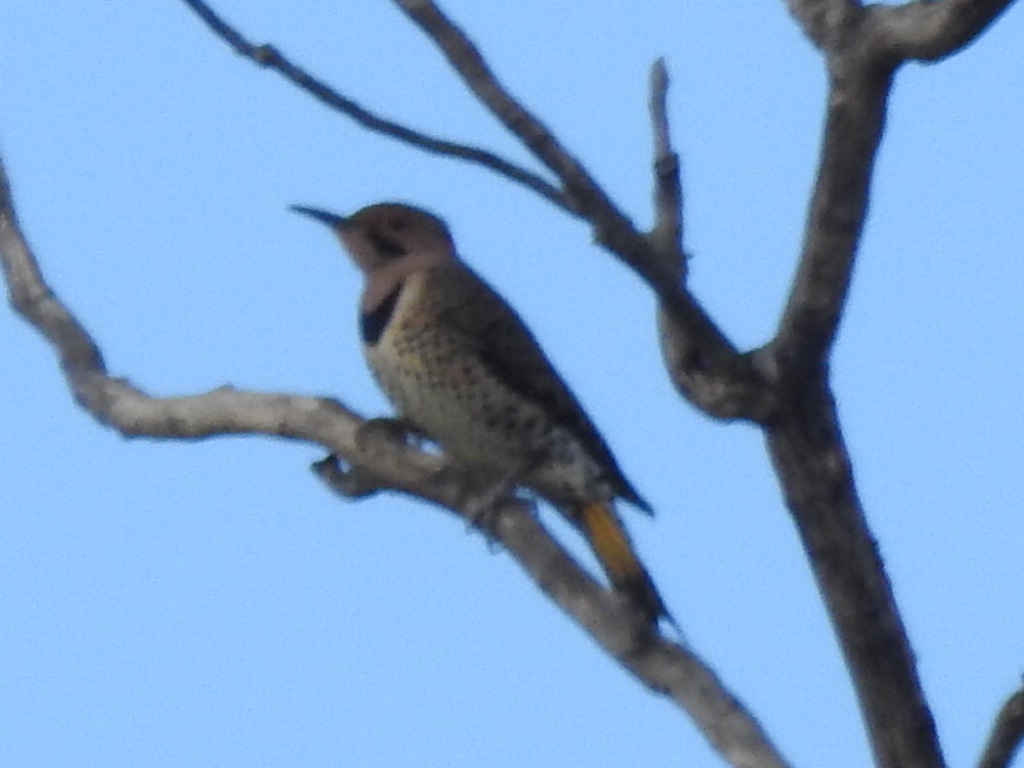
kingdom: Animalia
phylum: Chordata
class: Aves
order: Piciformes
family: Picidae
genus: Colaptes
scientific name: Colaptes auratus
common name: Northern flicker
